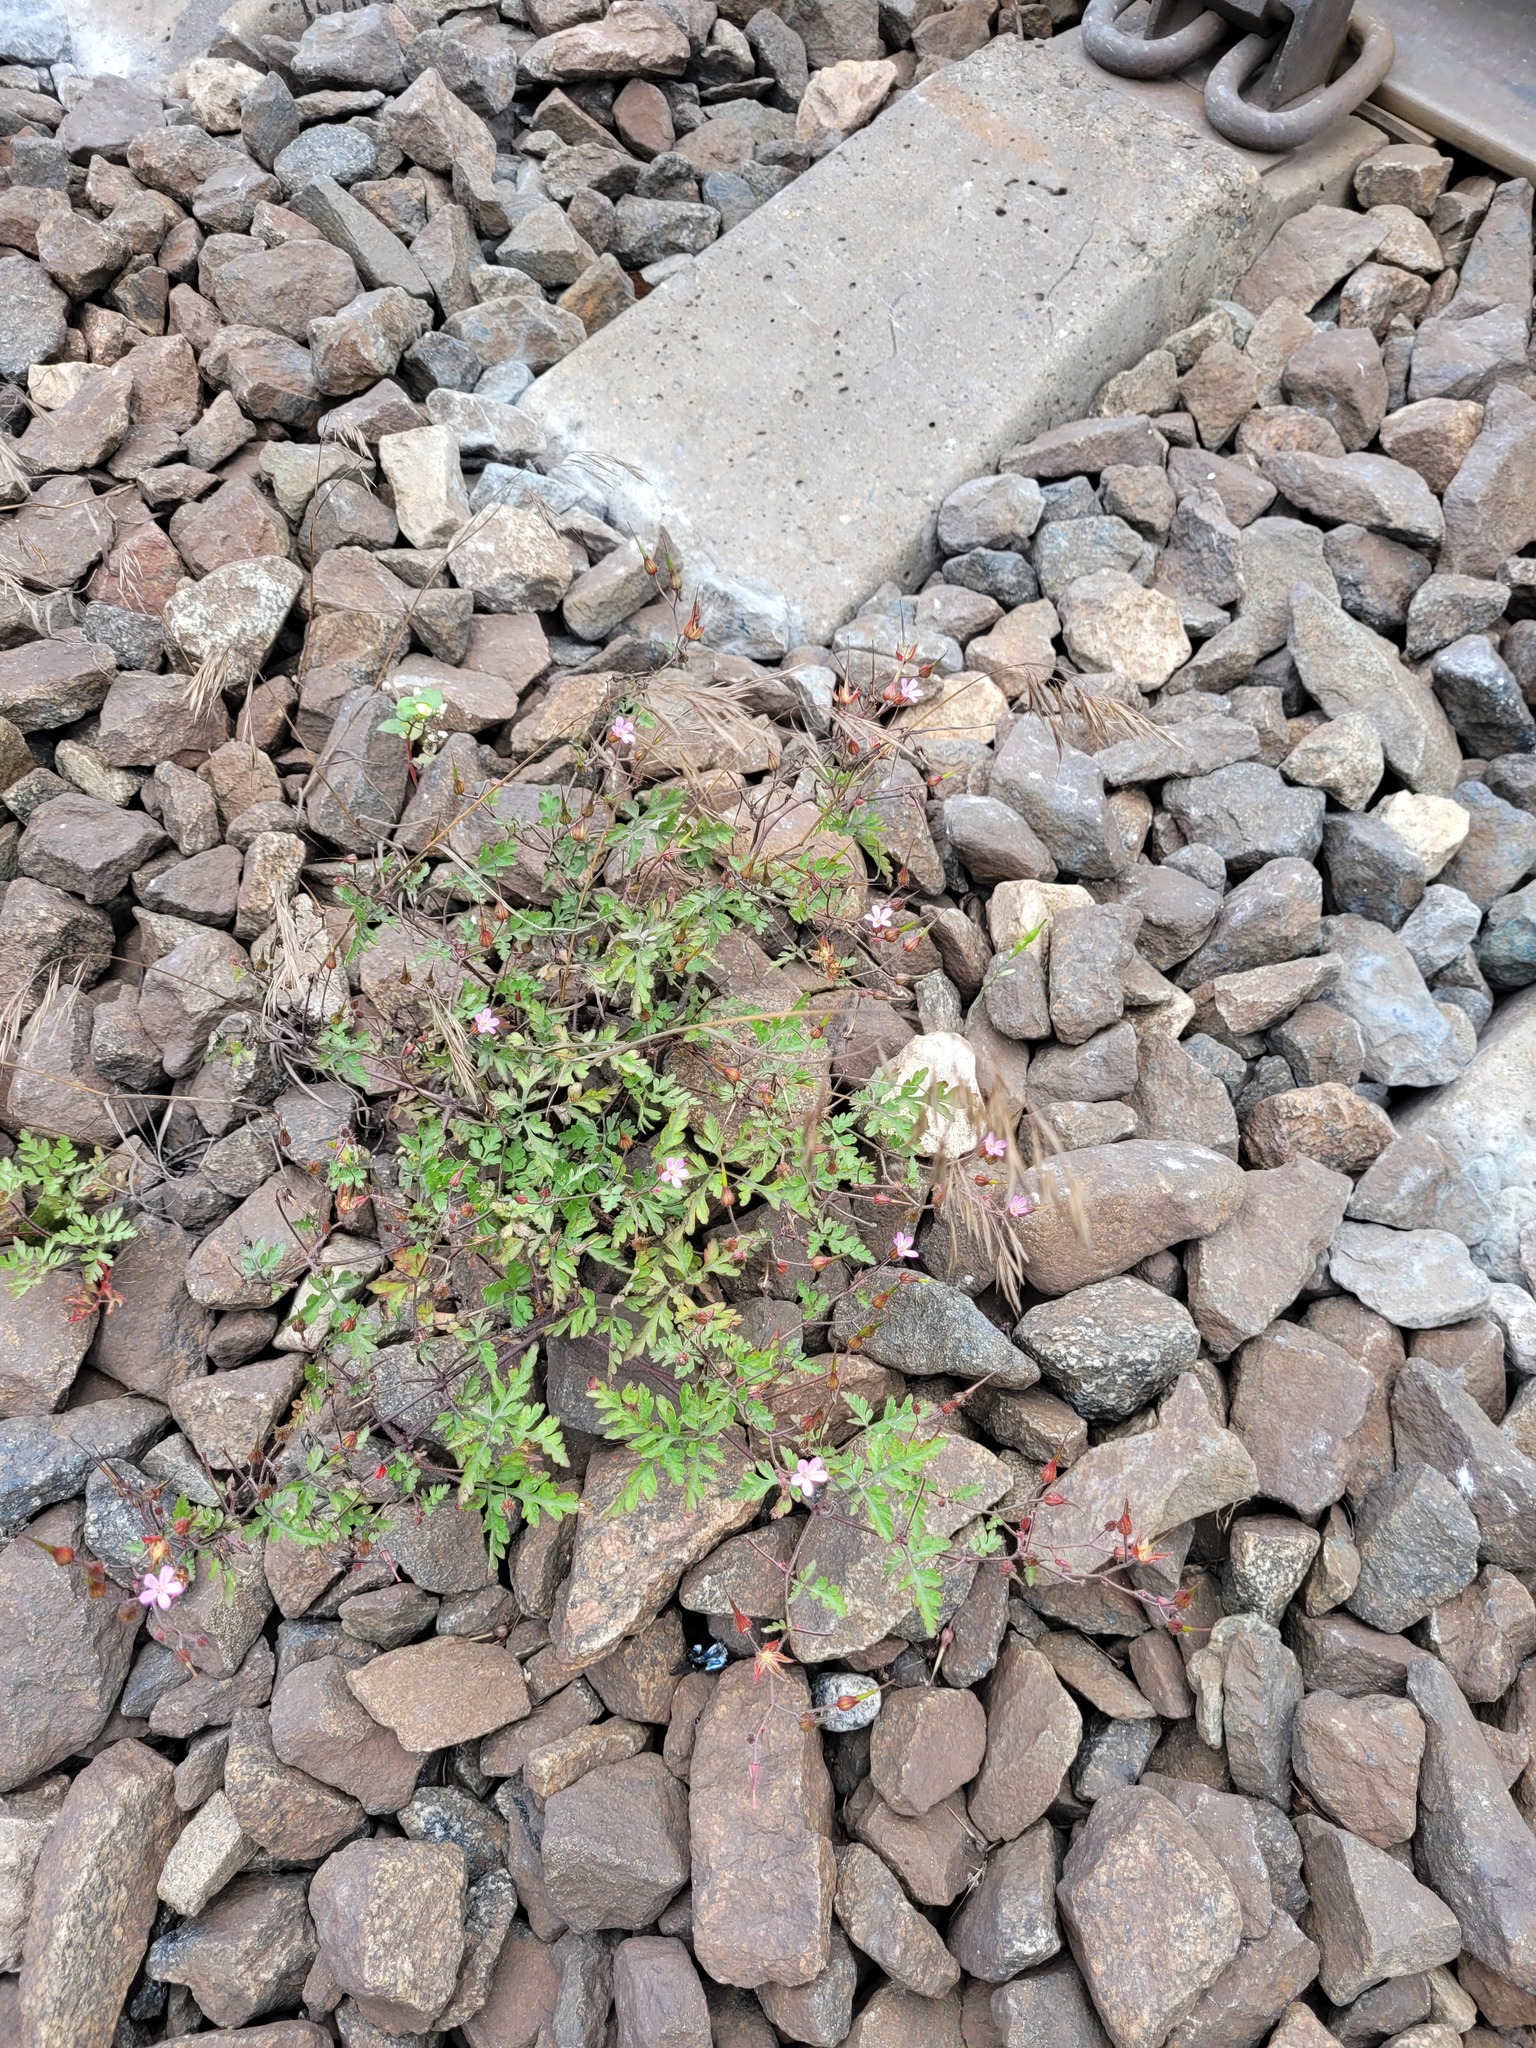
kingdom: Plantae
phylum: Tracheophyta
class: Magnoliopsida
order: Geraniales
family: Geraniaceae
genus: Geranium
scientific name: Geranium robertianum
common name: Herb-robert
